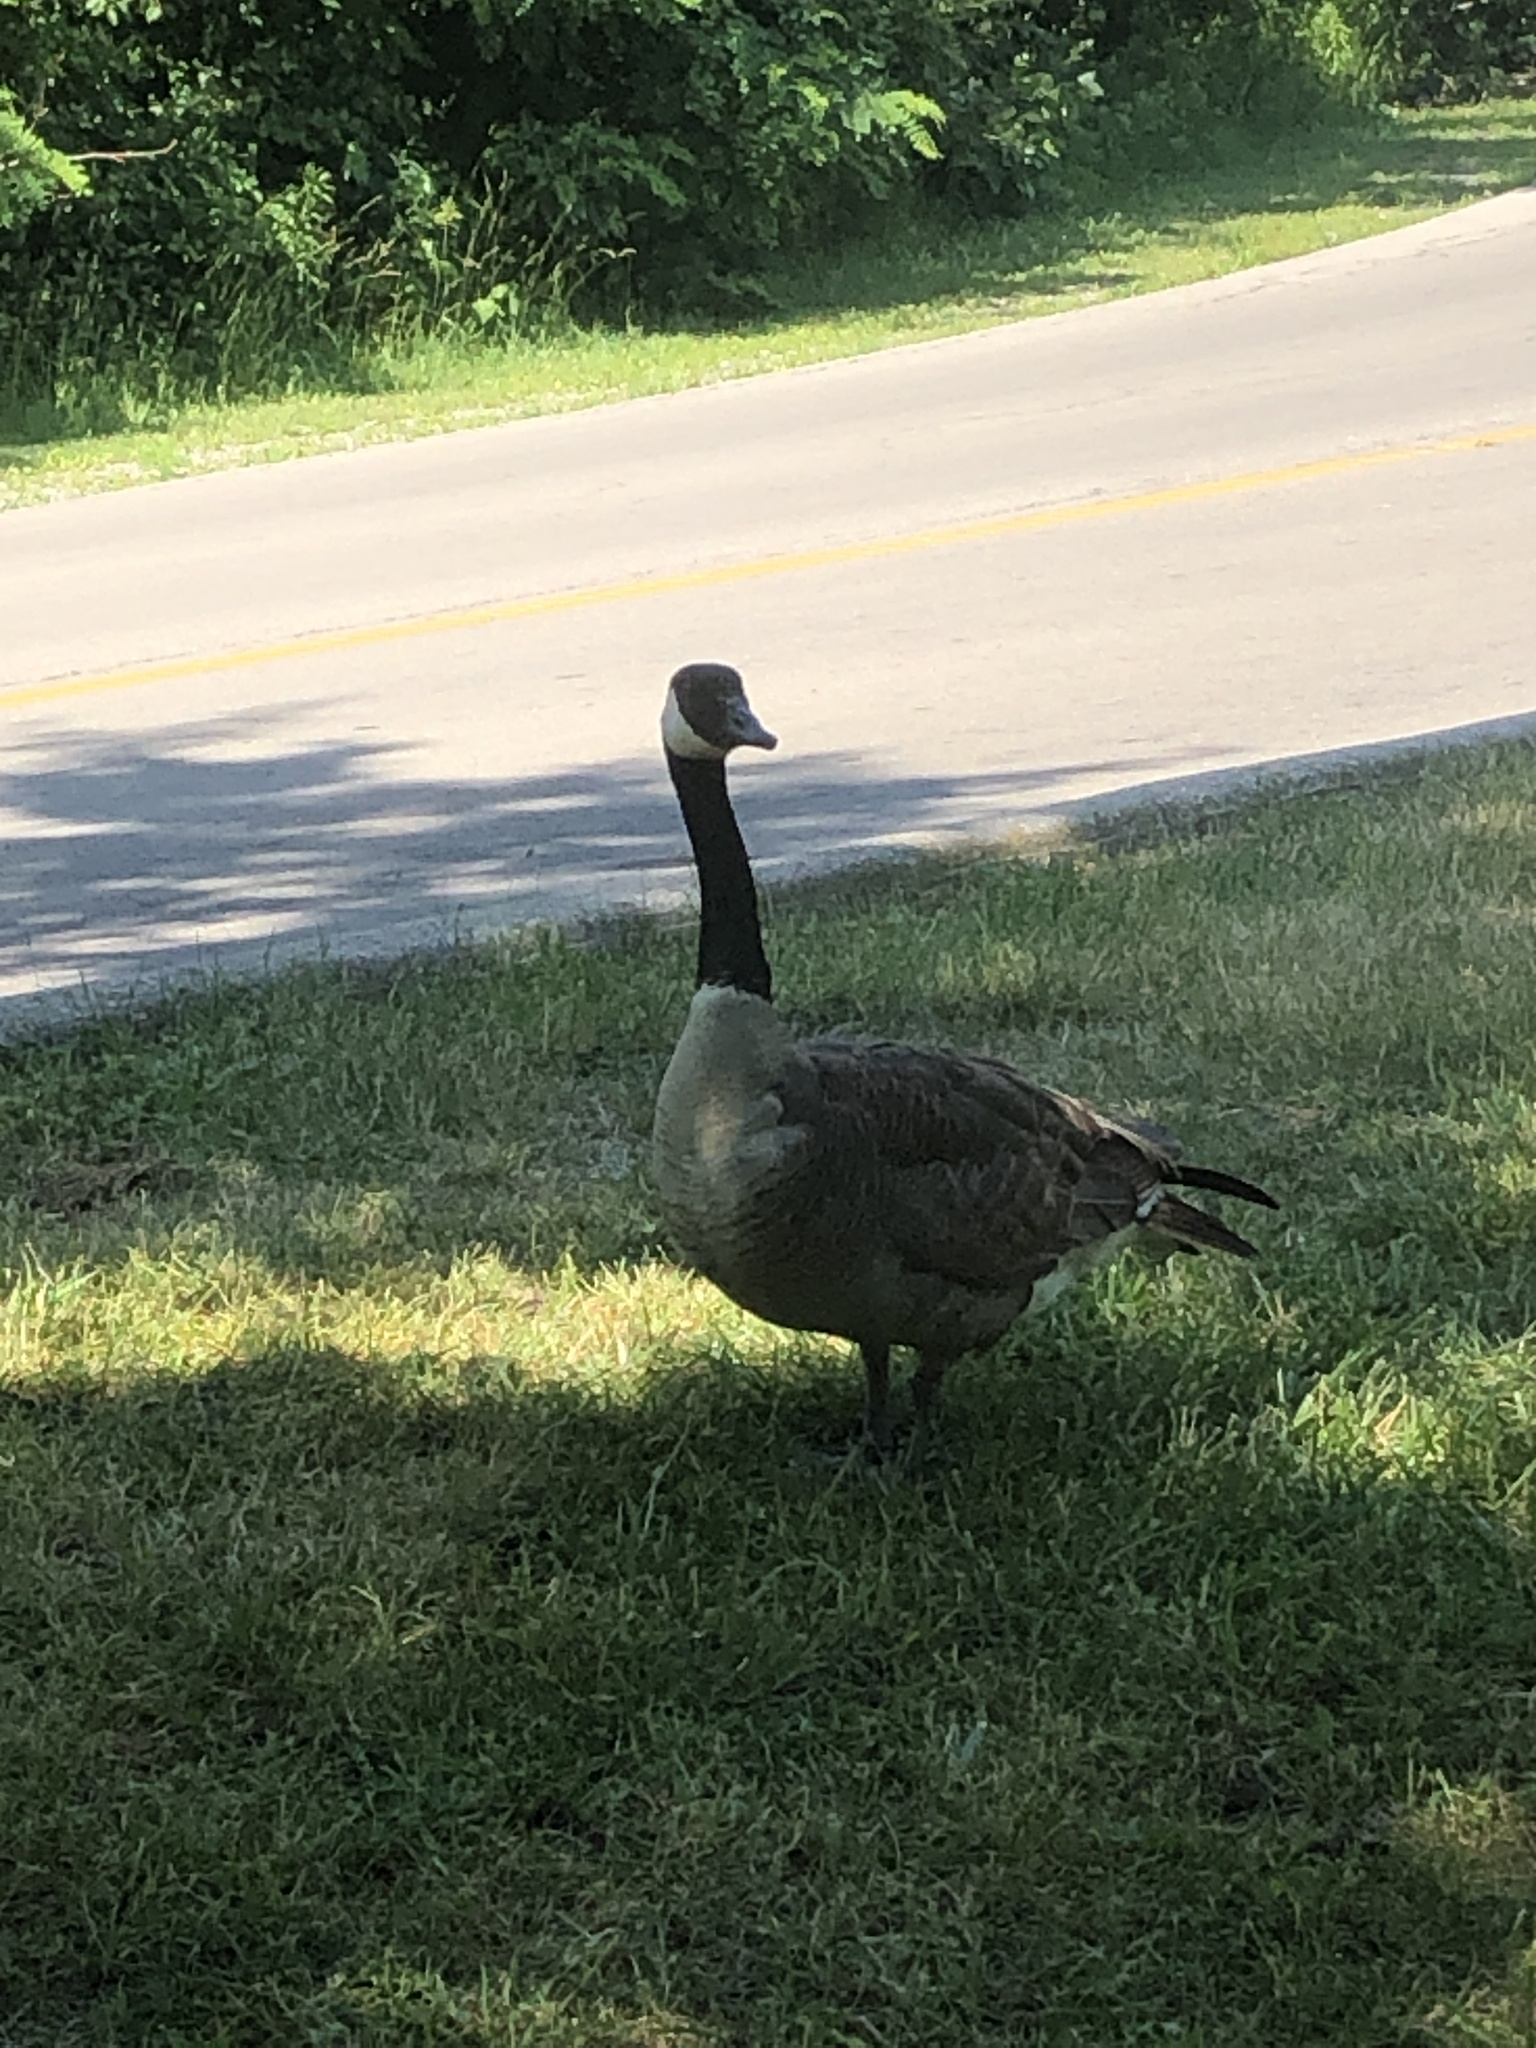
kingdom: Animalia
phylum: Chordata
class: Aves
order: Anseriformes
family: Anatidae
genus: Branta
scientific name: Branta canadensis
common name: Canada goose
